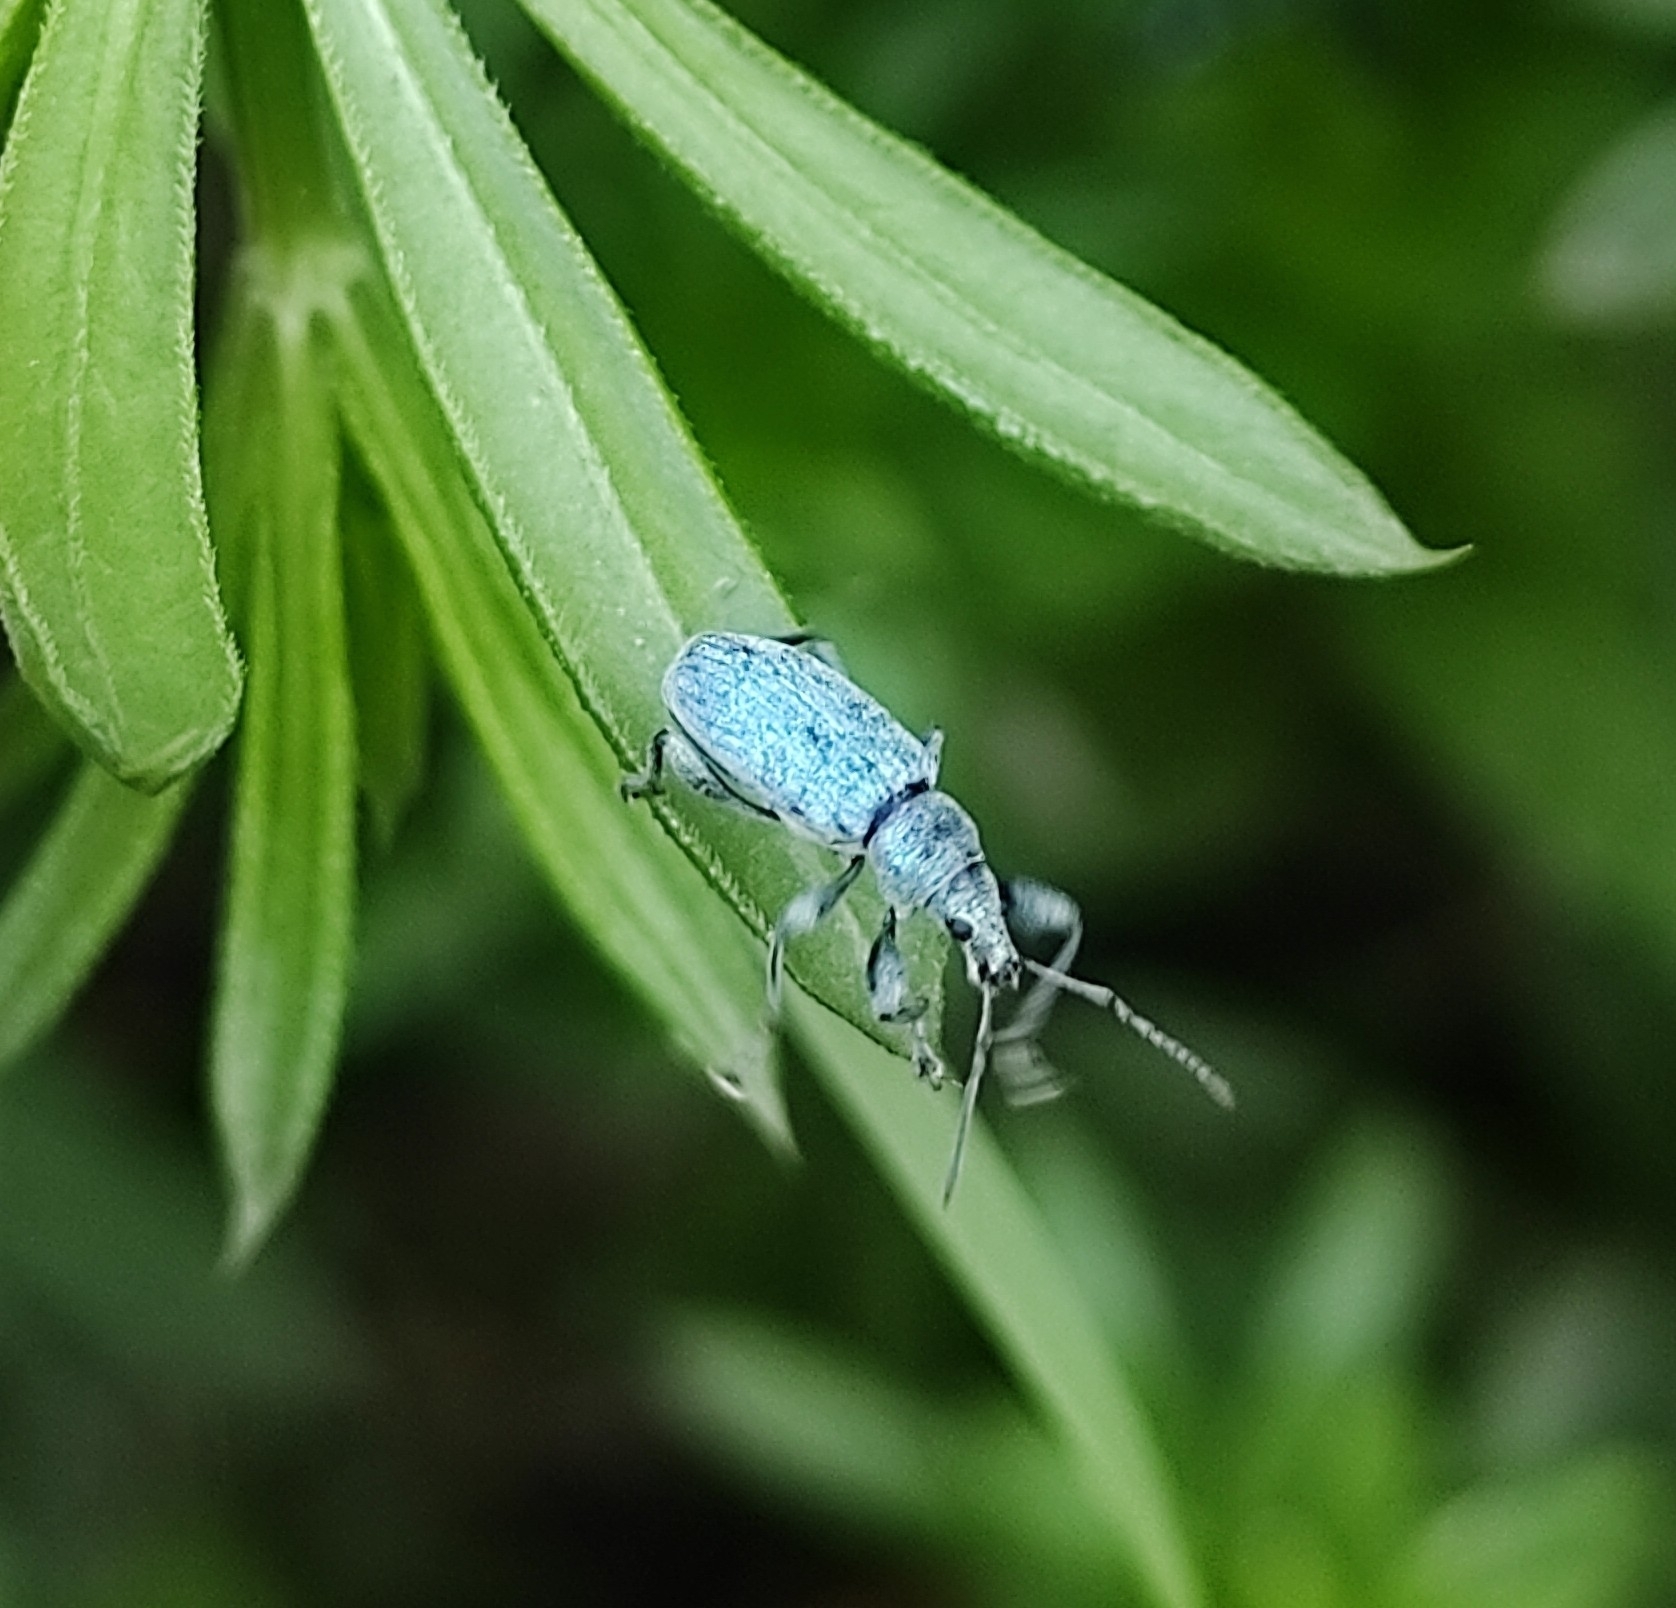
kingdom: Animalia
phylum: Arthropoda
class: Insecta
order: Coleoptera
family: Curculionidae
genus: Phyllobius
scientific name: Phyllobius pomaceus
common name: Green nettle weevil
